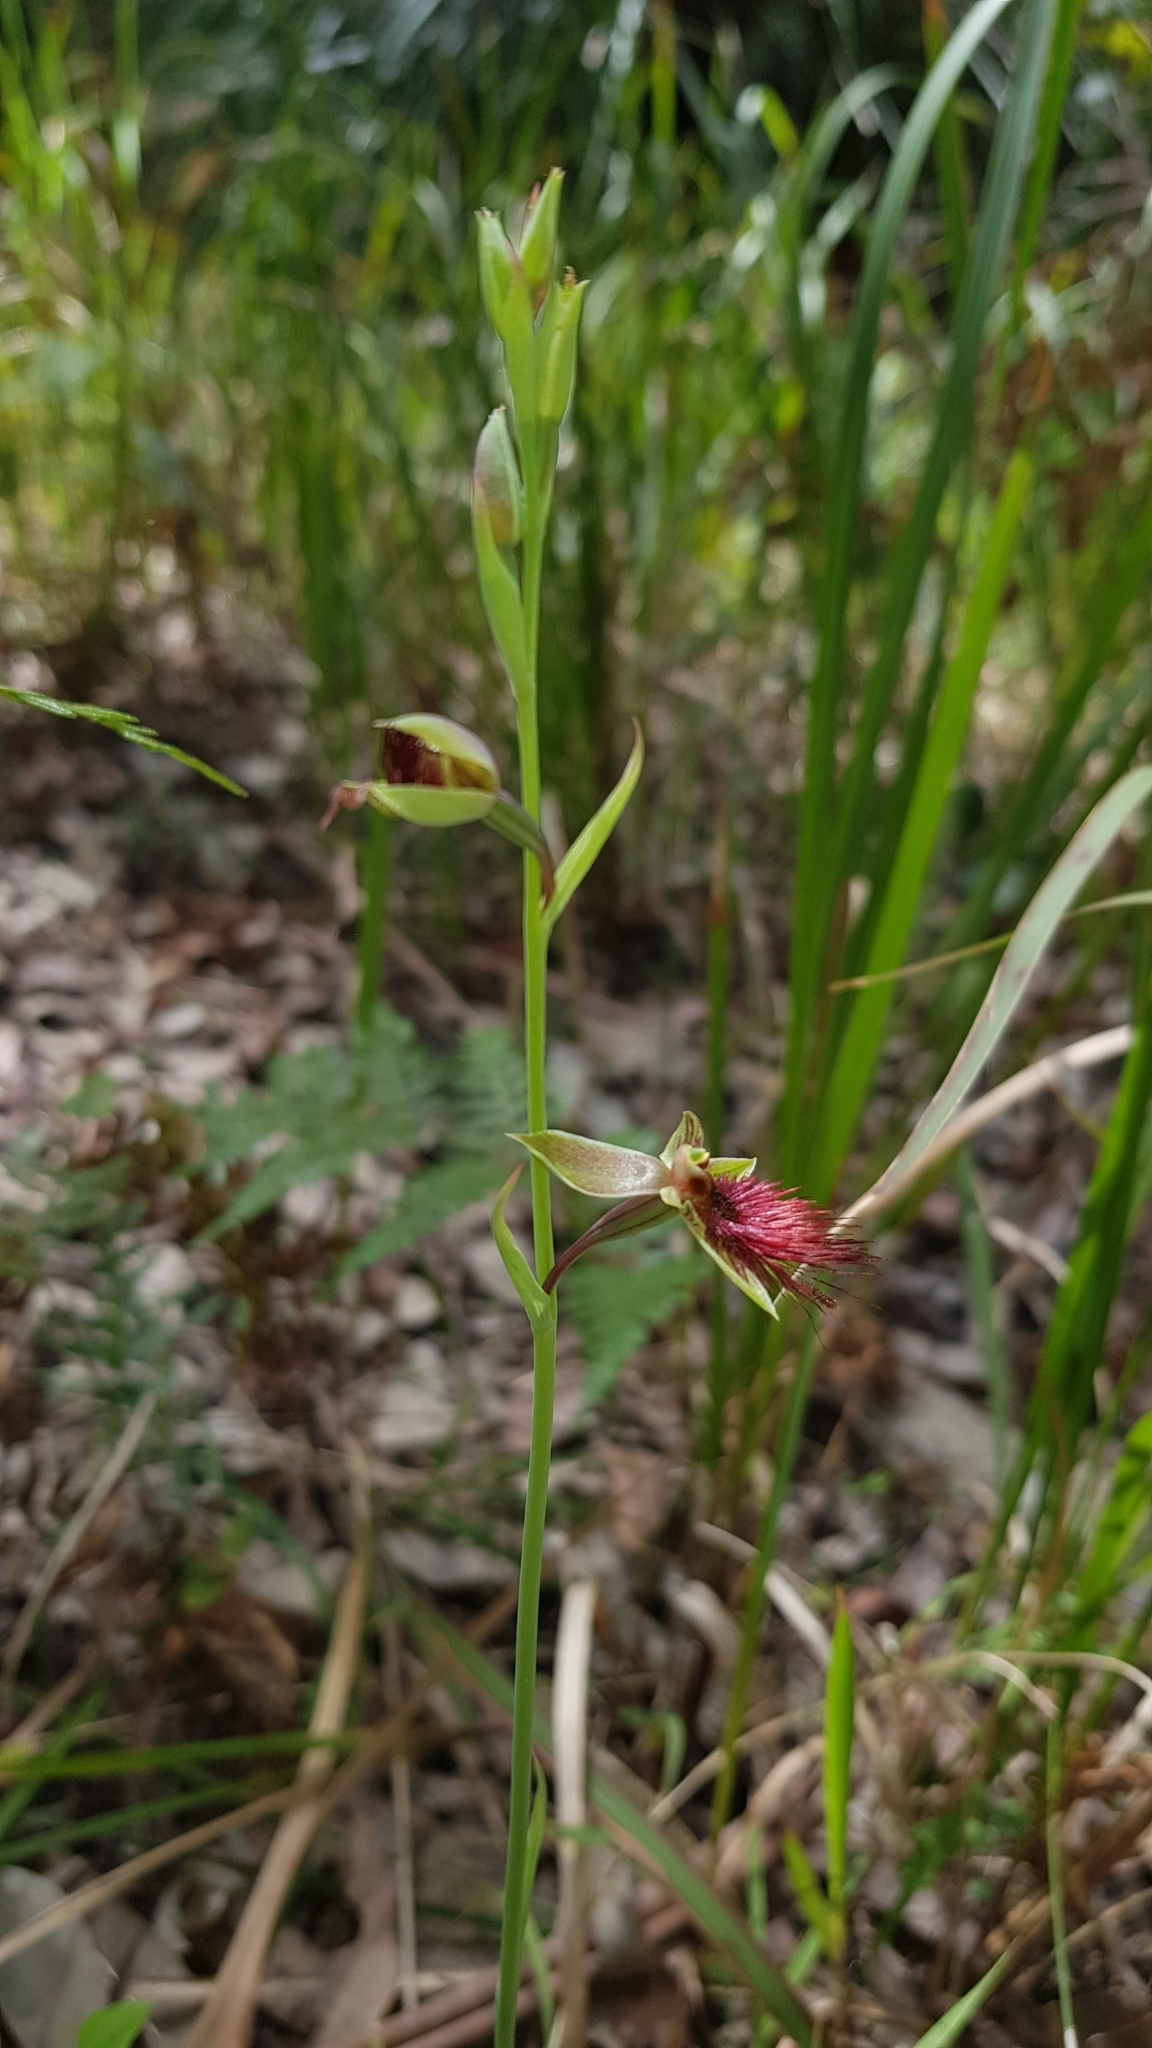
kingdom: Plantae
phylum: Tracheophyta
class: Liliopsida
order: Asparagales
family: Orchidaceae
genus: Calochilus
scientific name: Calochilus paludosus
